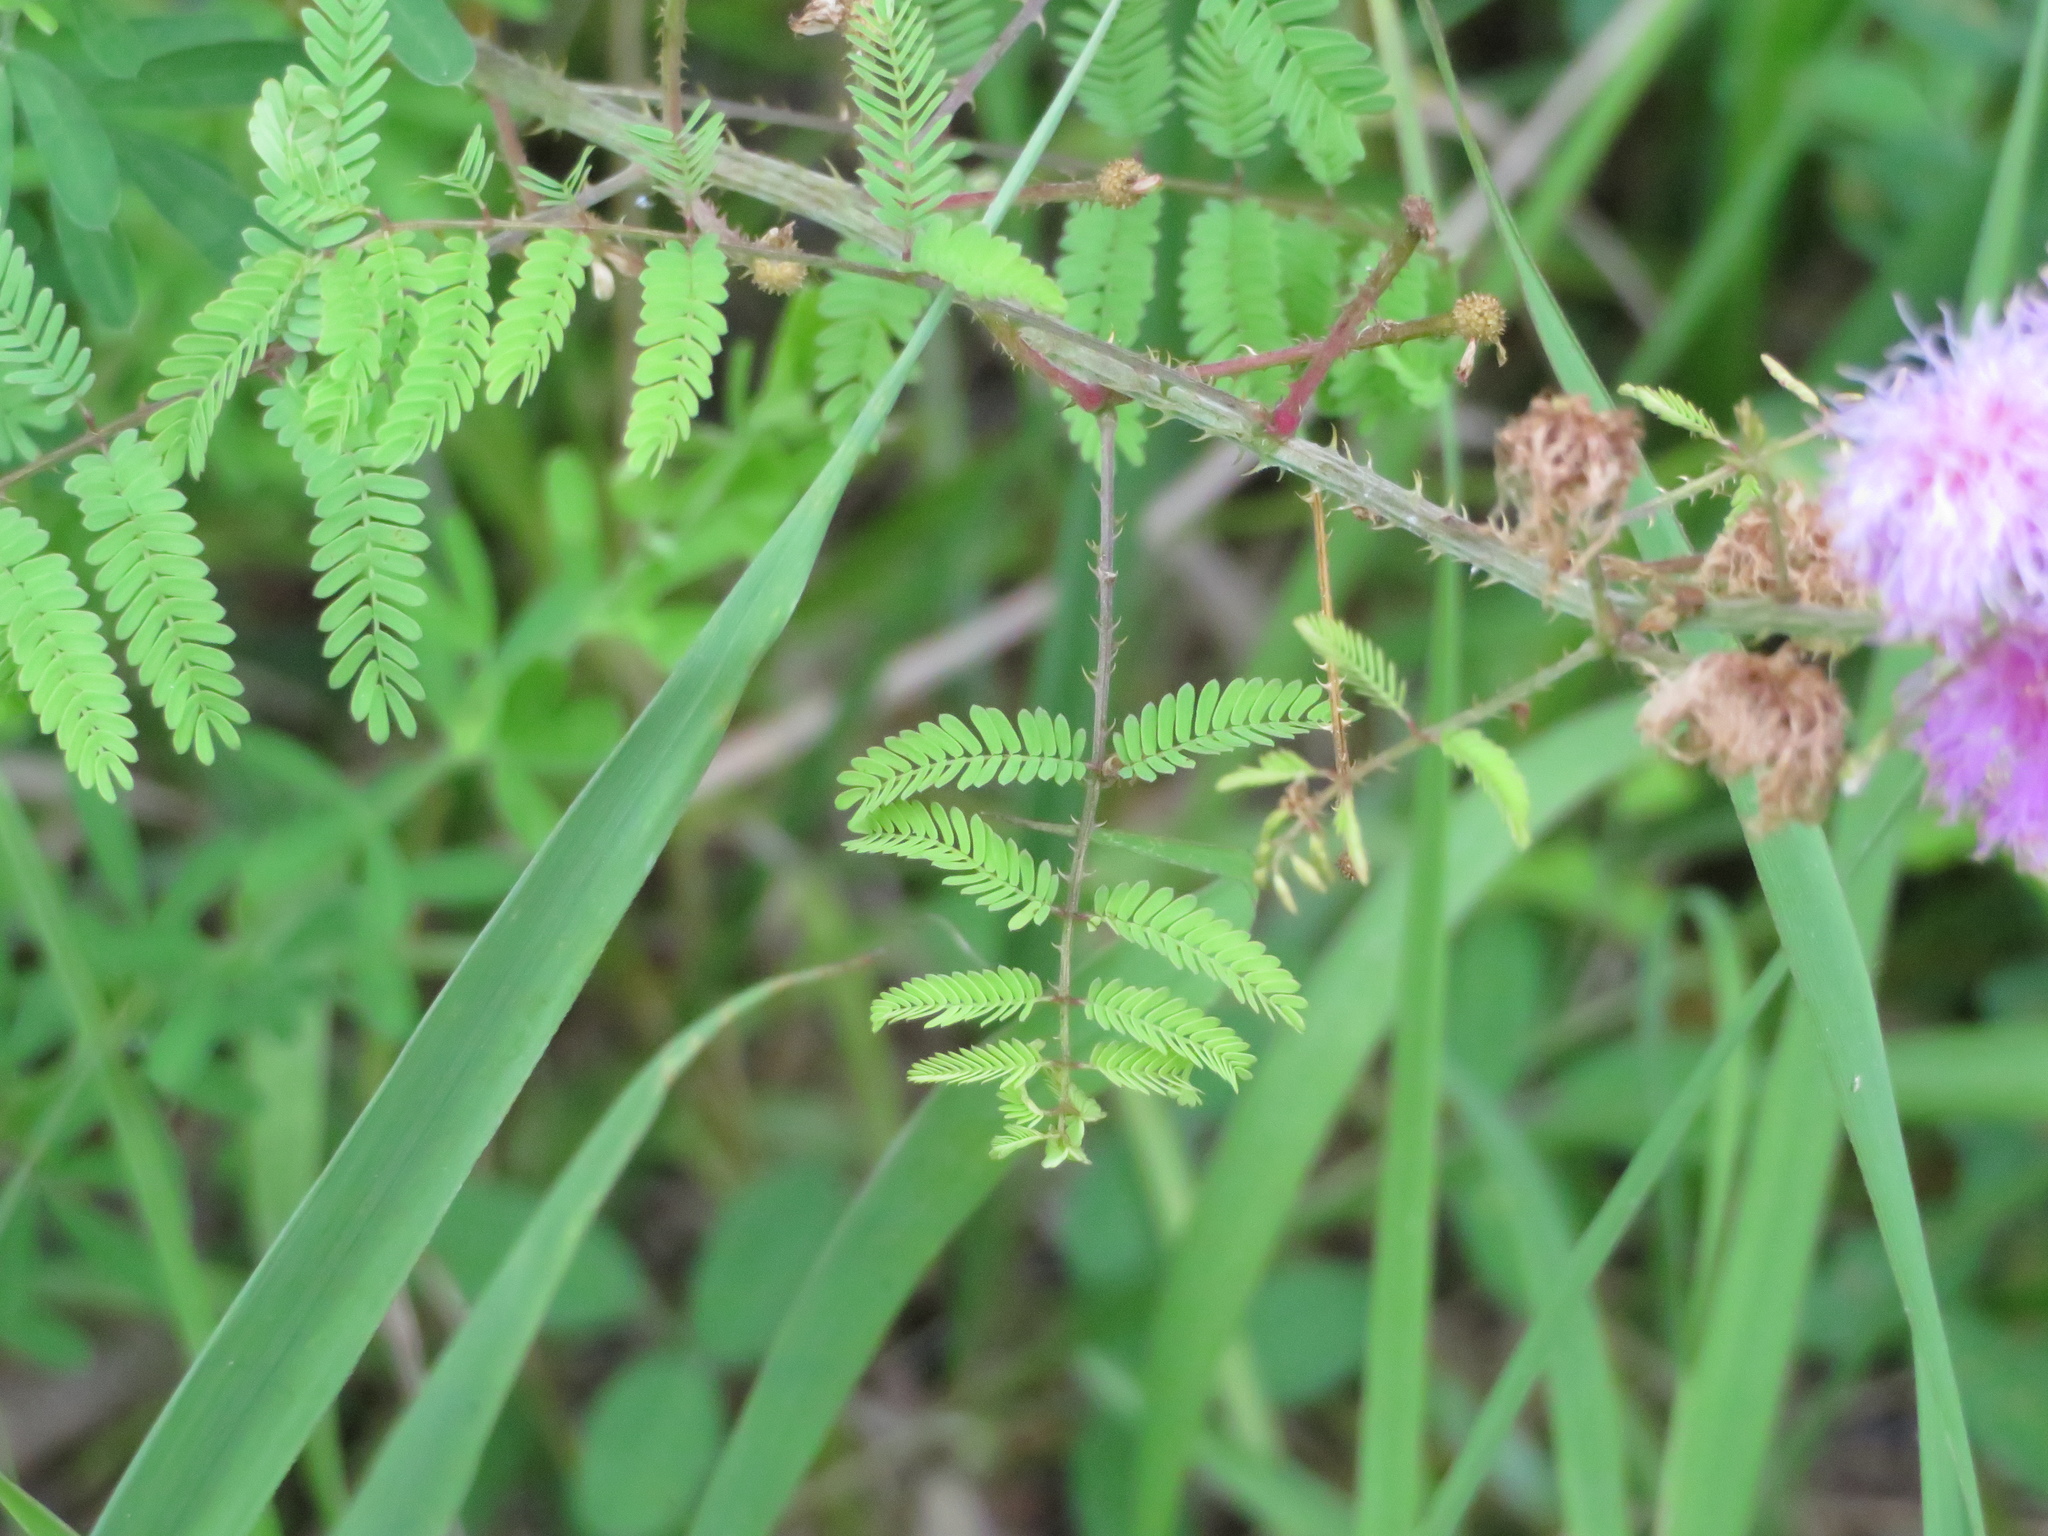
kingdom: Plantae
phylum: Tracheophyta
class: Magnoliopsida
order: Fabales
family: Fabaceae
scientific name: Fabaceae
